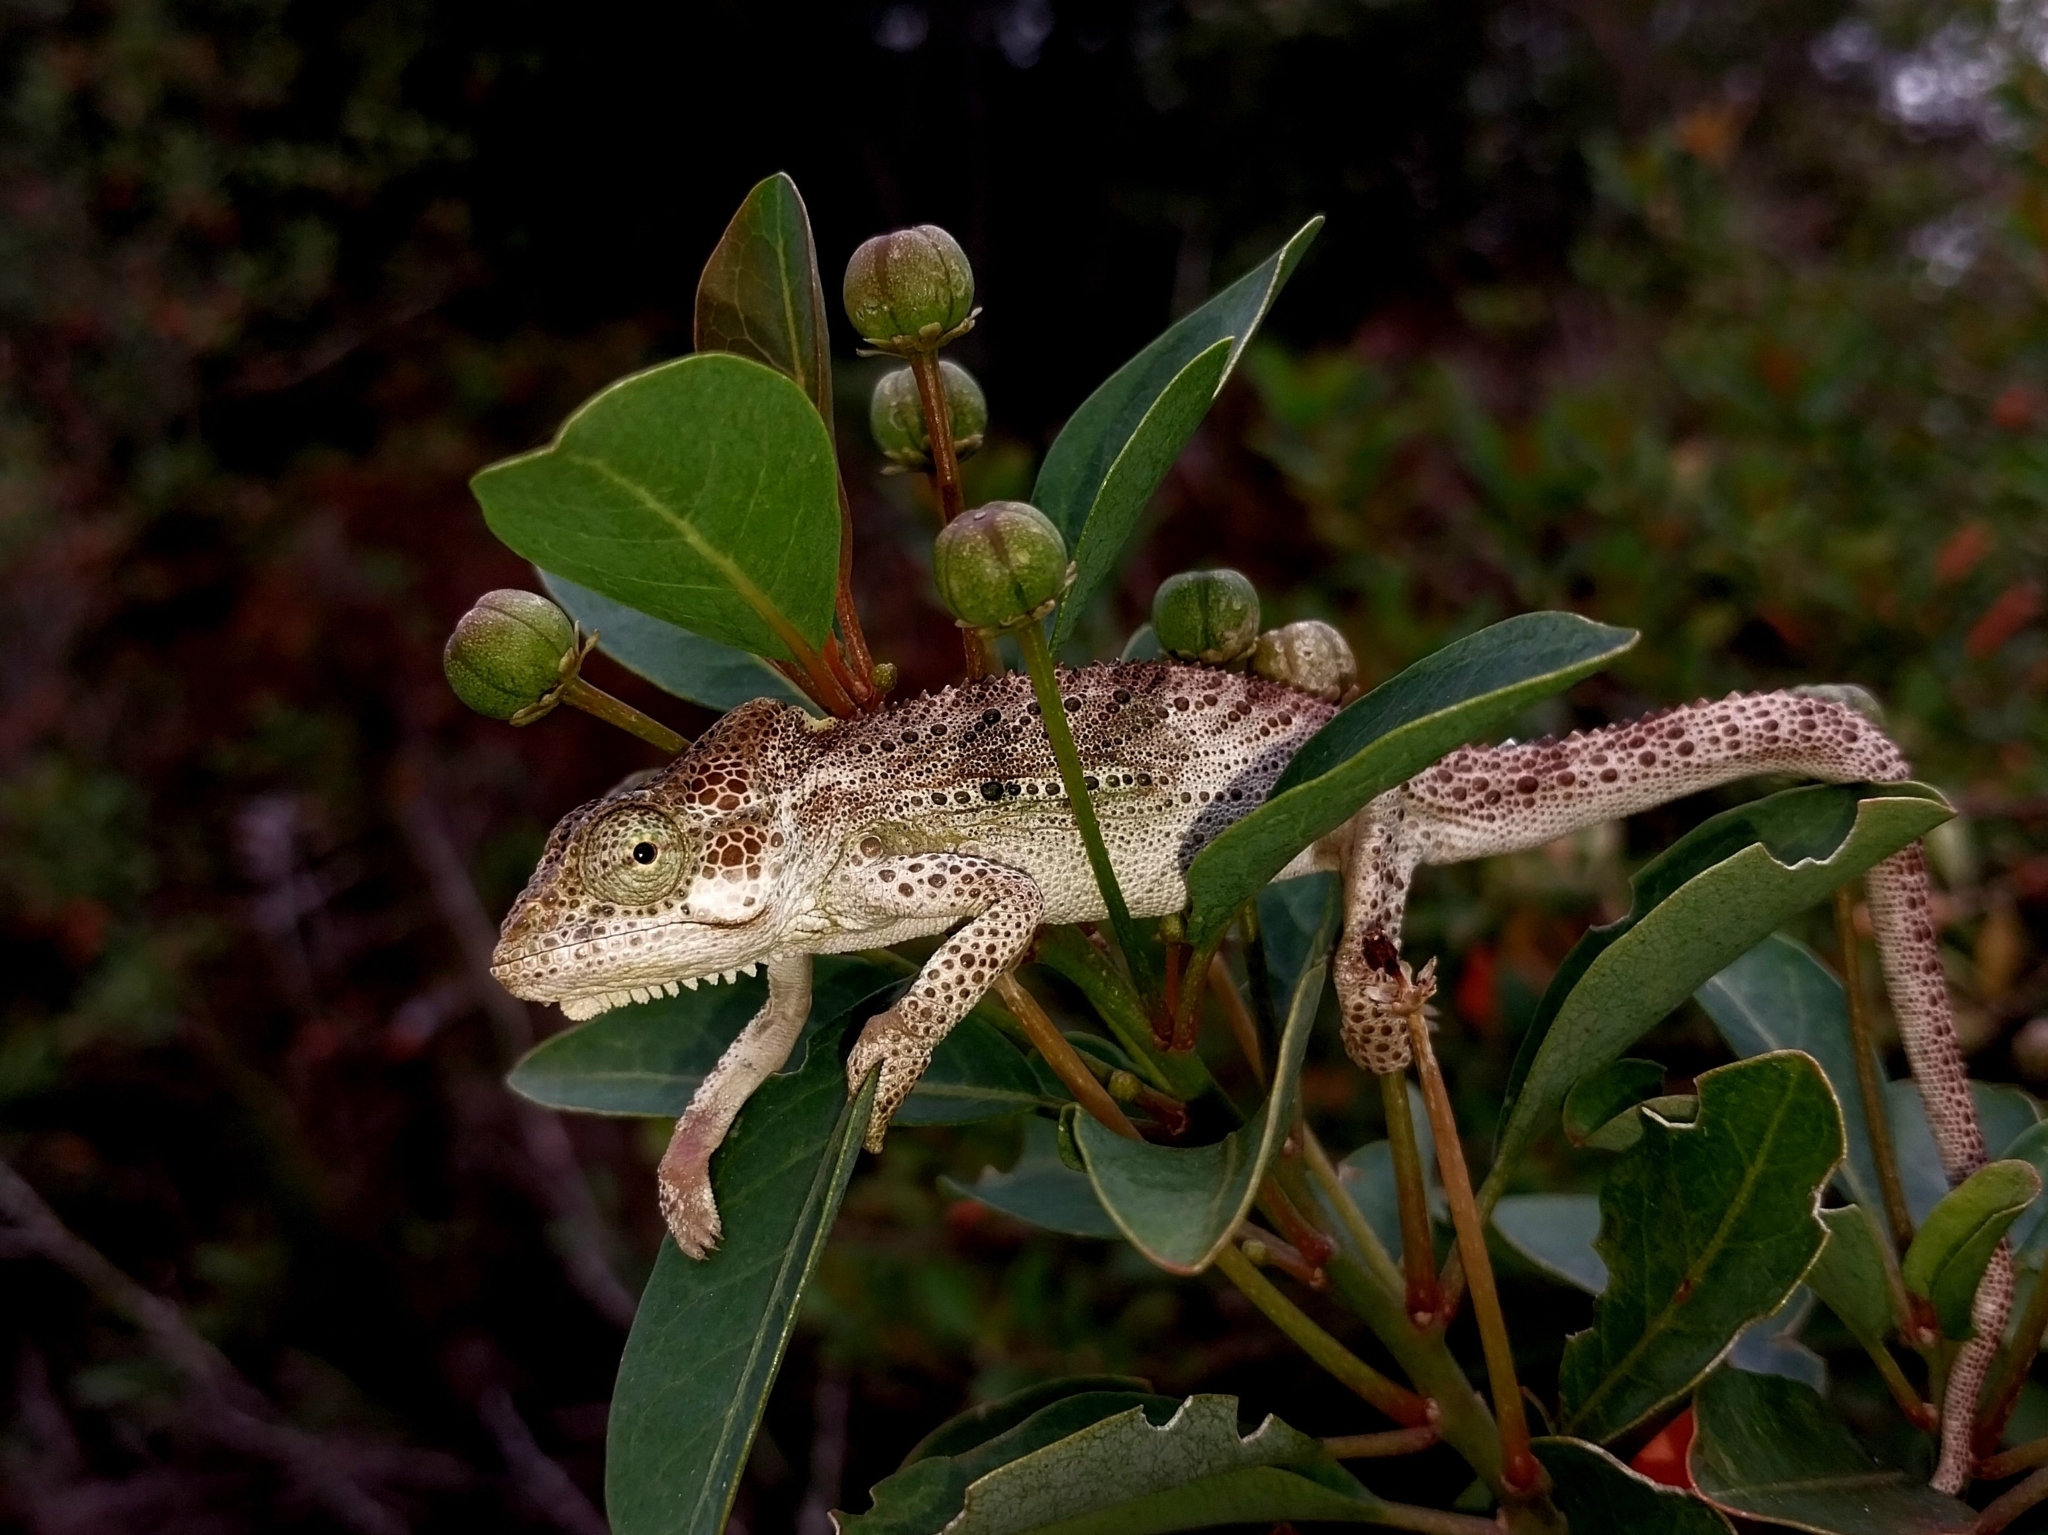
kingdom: Animalia
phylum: Chordata
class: Squamata
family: Chamaeleonidae
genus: Bradypodion
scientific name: Bradypodion damaranum
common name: Knysna dwarf chameleon
